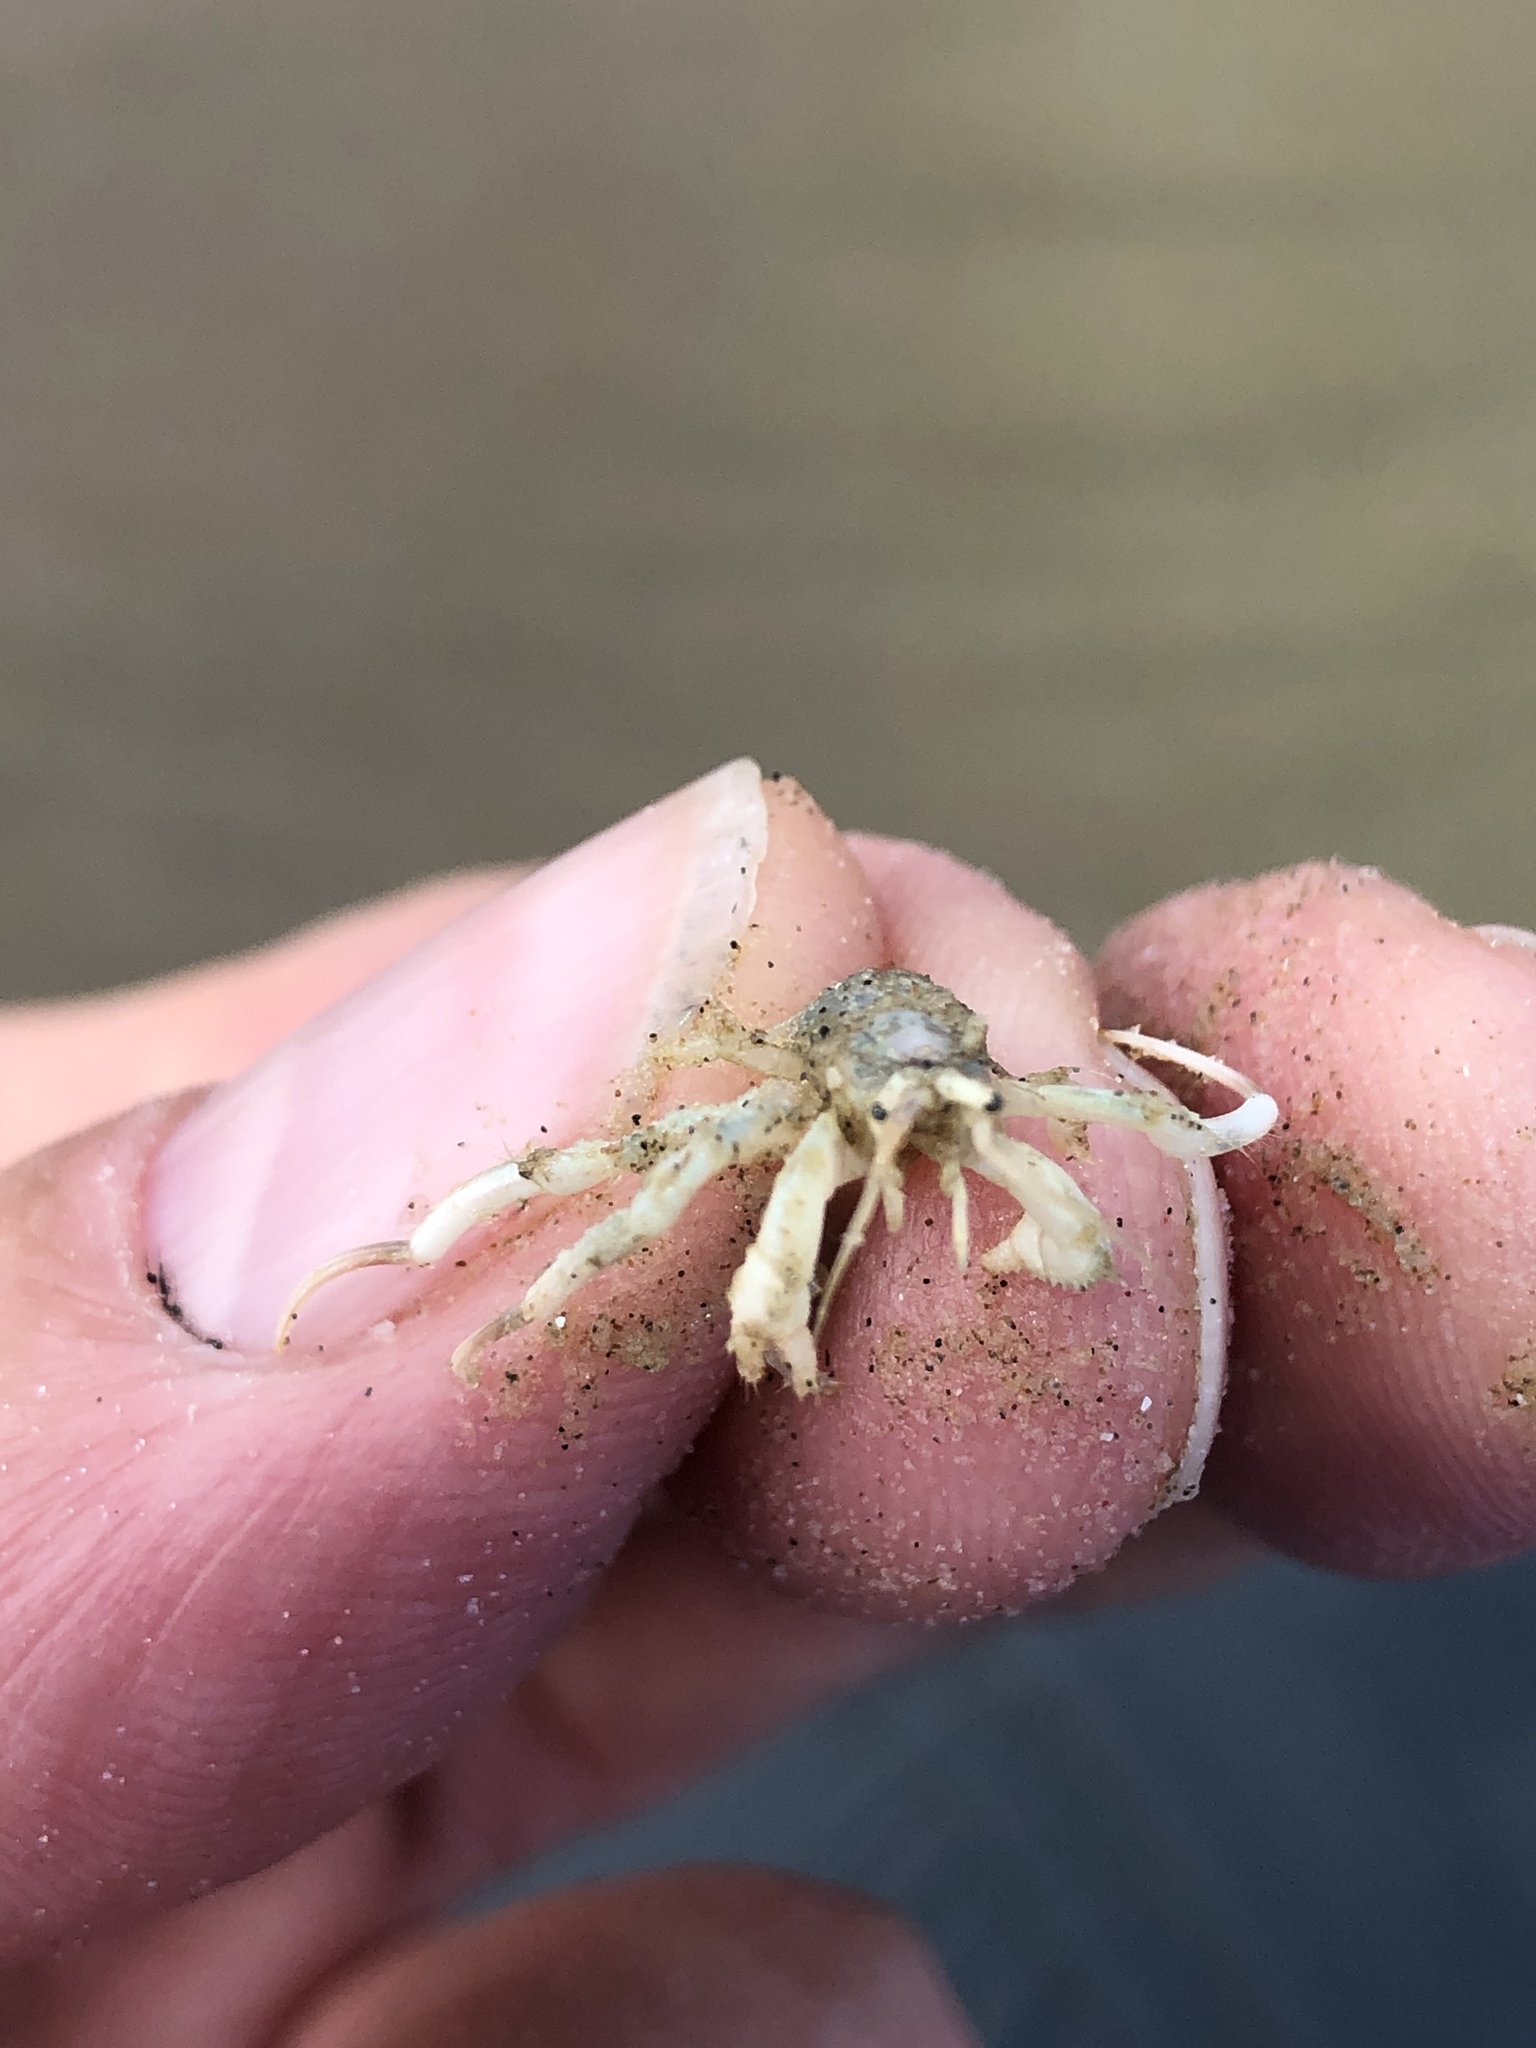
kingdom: Animalia
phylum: Arthropoda
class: Malacostraca
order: Decapoda
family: Diogenidae
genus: Isocheles
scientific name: Isocheles wurdemanni
